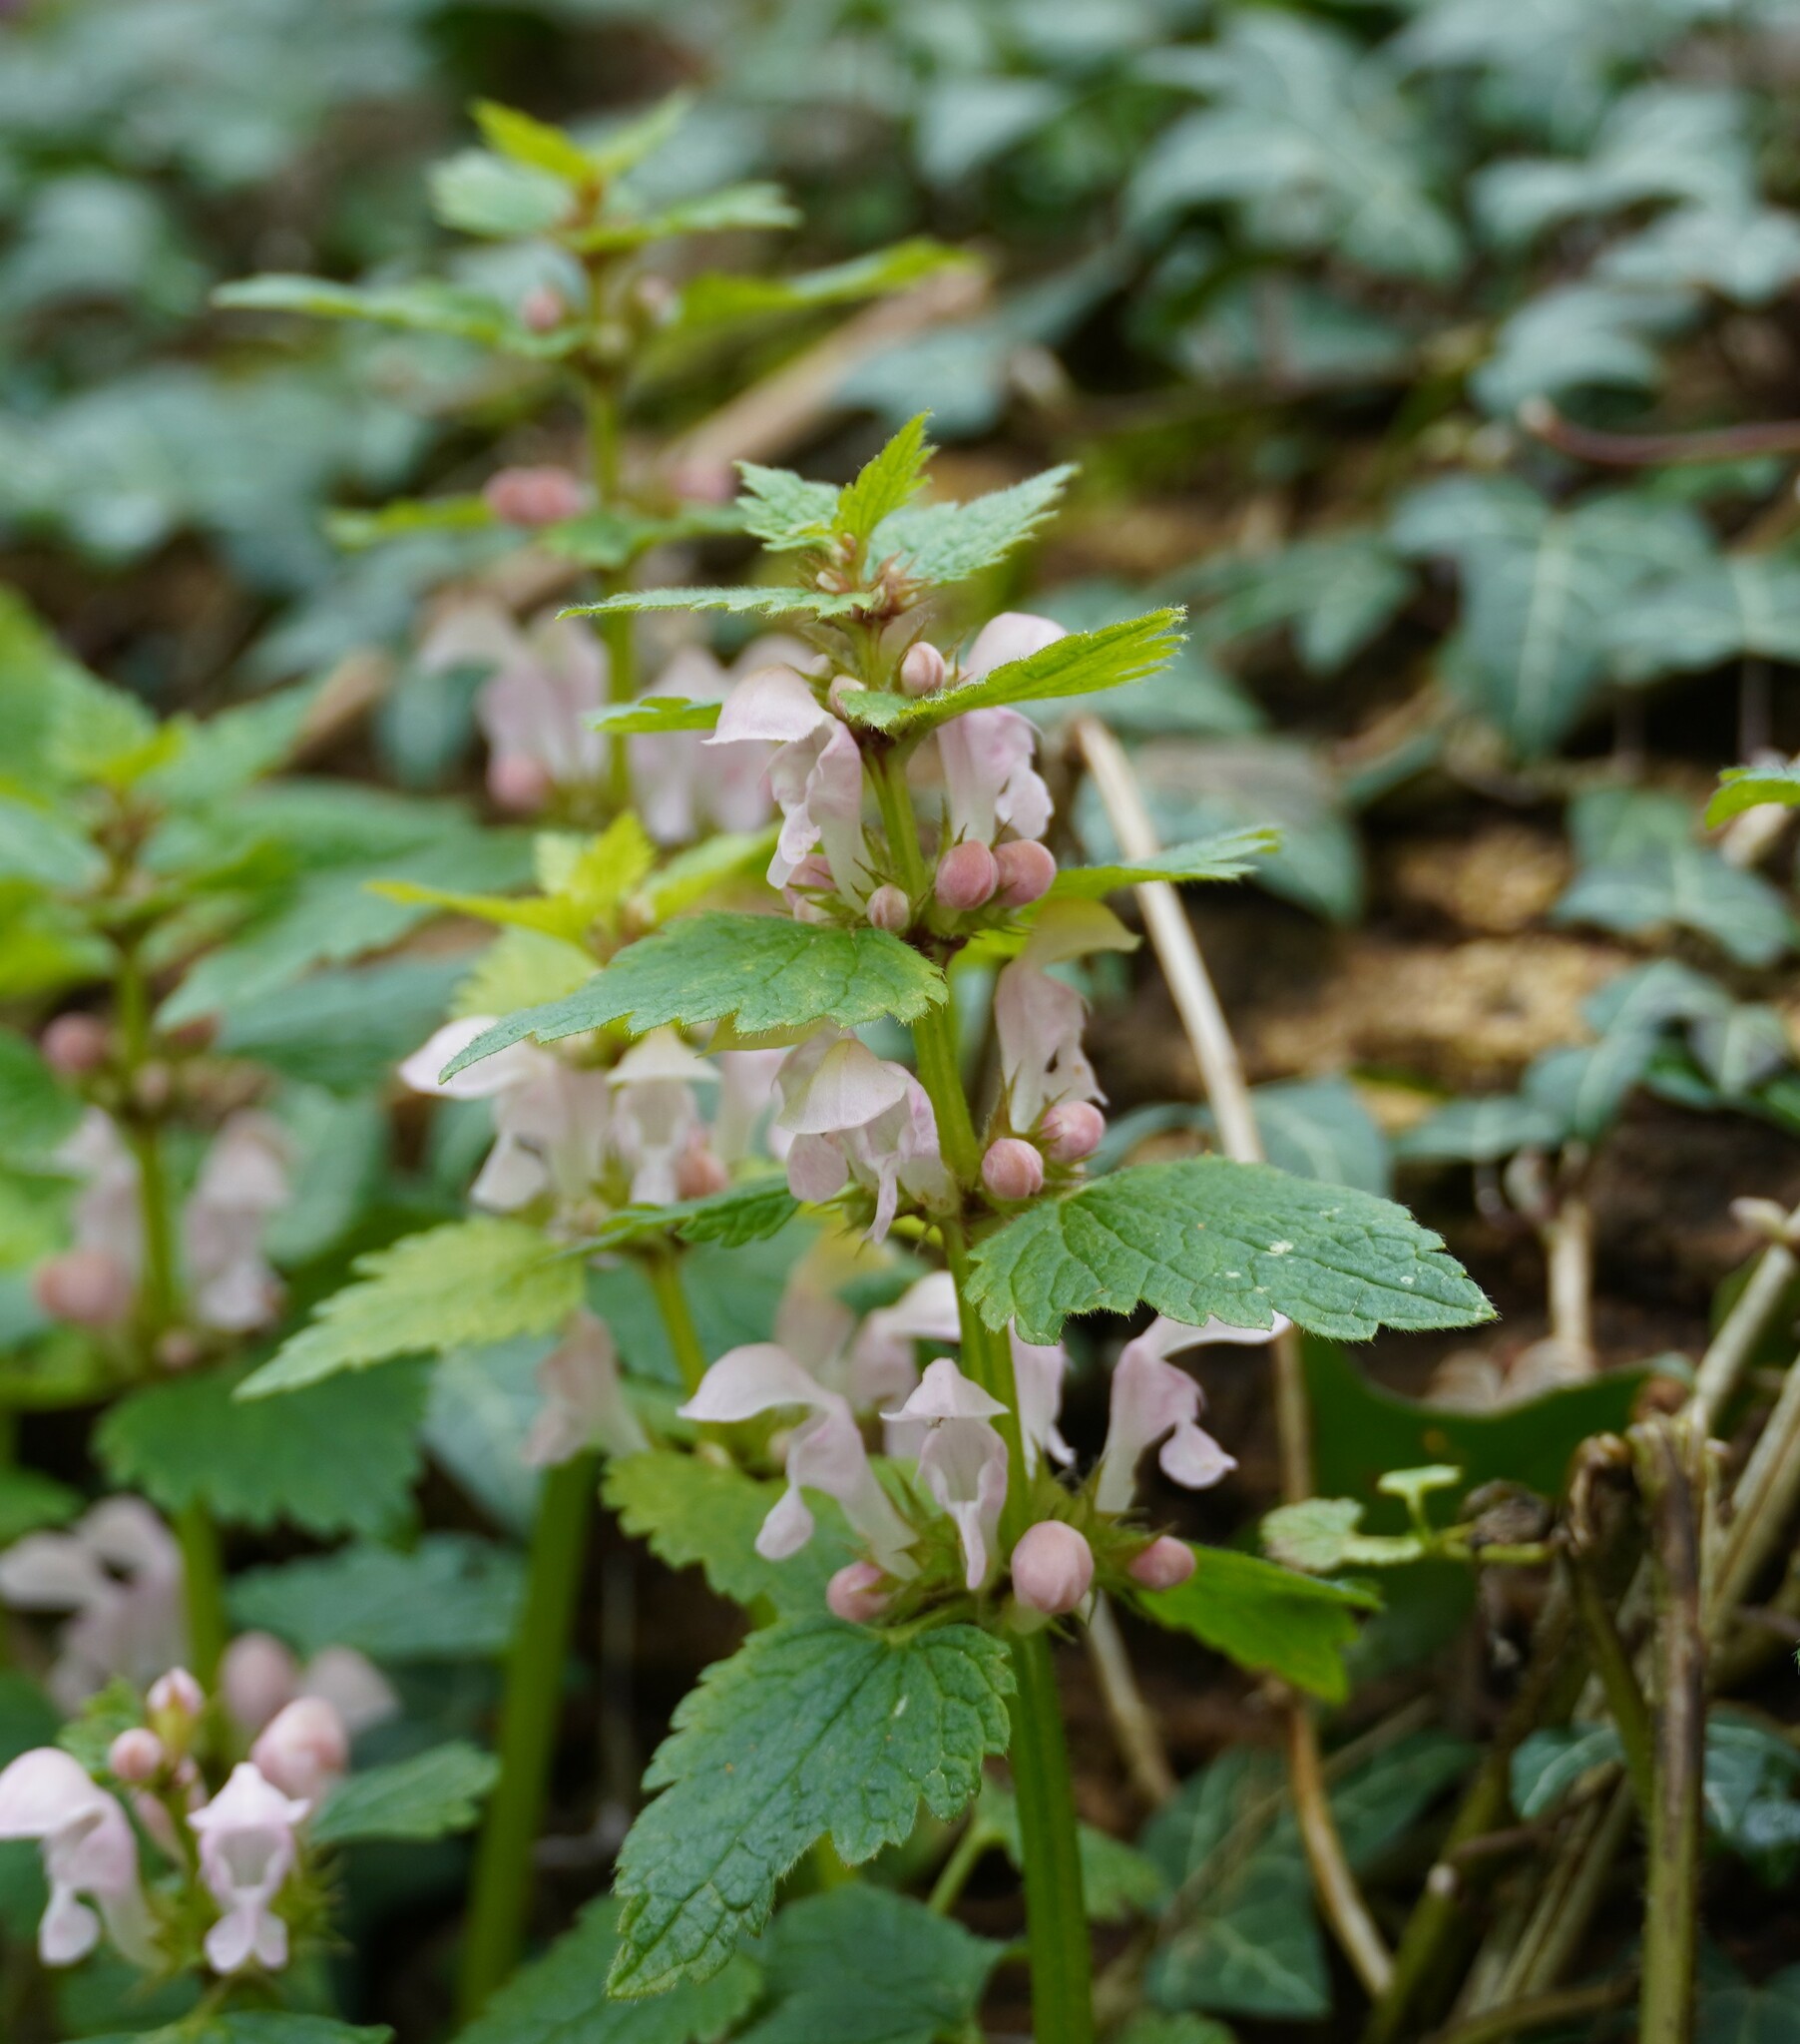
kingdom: Plantae
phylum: Tracheophyta
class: Magnoliopsida
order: Lamiales
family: Lamiaceae
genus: Lamium
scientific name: Lamium maculatum
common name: Spotted dead-nettle
